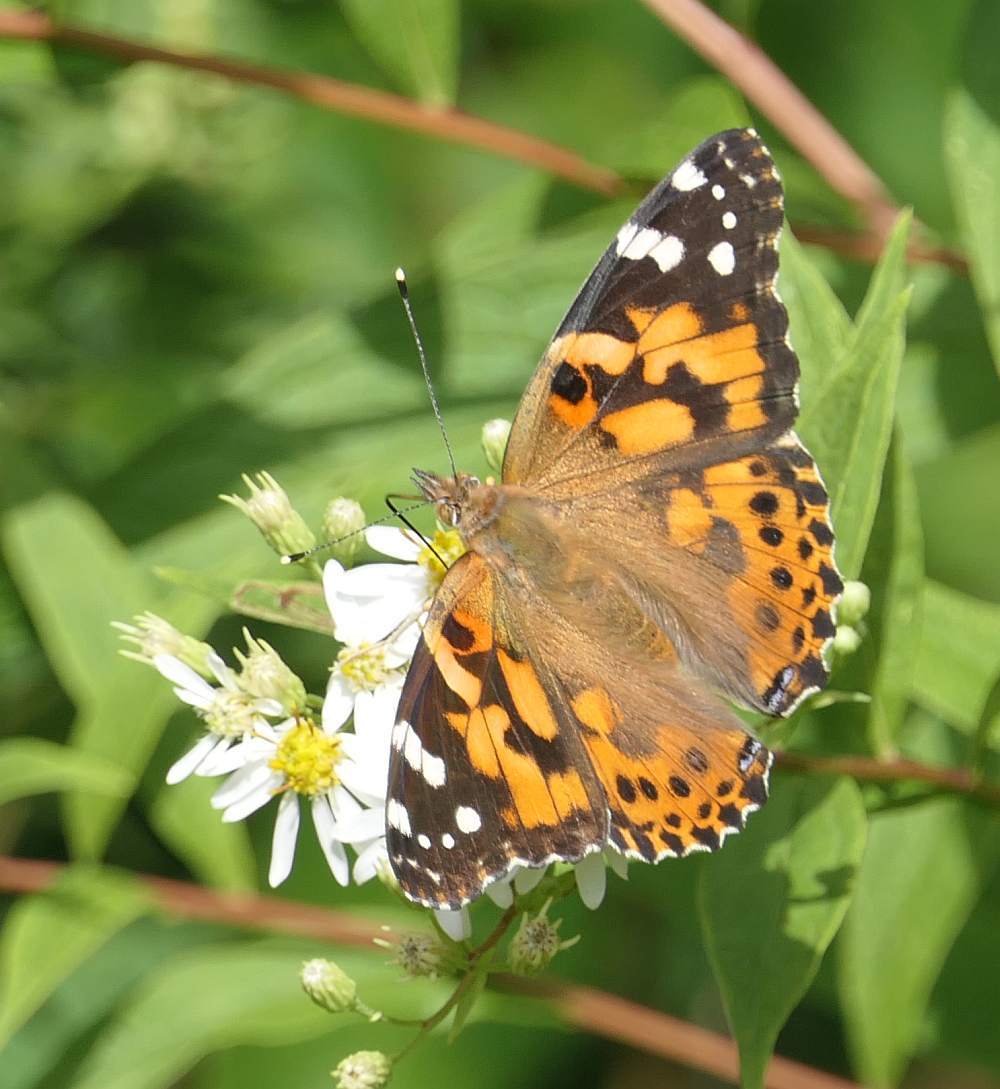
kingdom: Animalia
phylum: Arthropoda
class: Insecta
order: Lepidoptera
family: Nymphalidae
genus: Vanessa
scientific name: Vanessa cardui
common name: Painted lady
